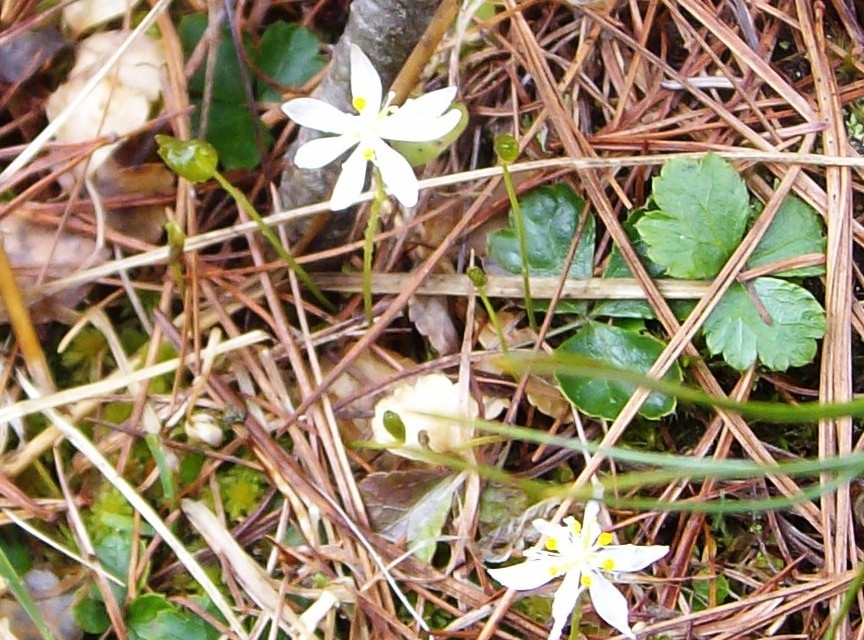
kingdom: Plantae
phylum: Tracheophyta
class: Magnoliopsida
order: Ranunculales
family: Ranunculaceae
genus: Coptis
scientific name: Coptis trifolia
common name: Canker-root
